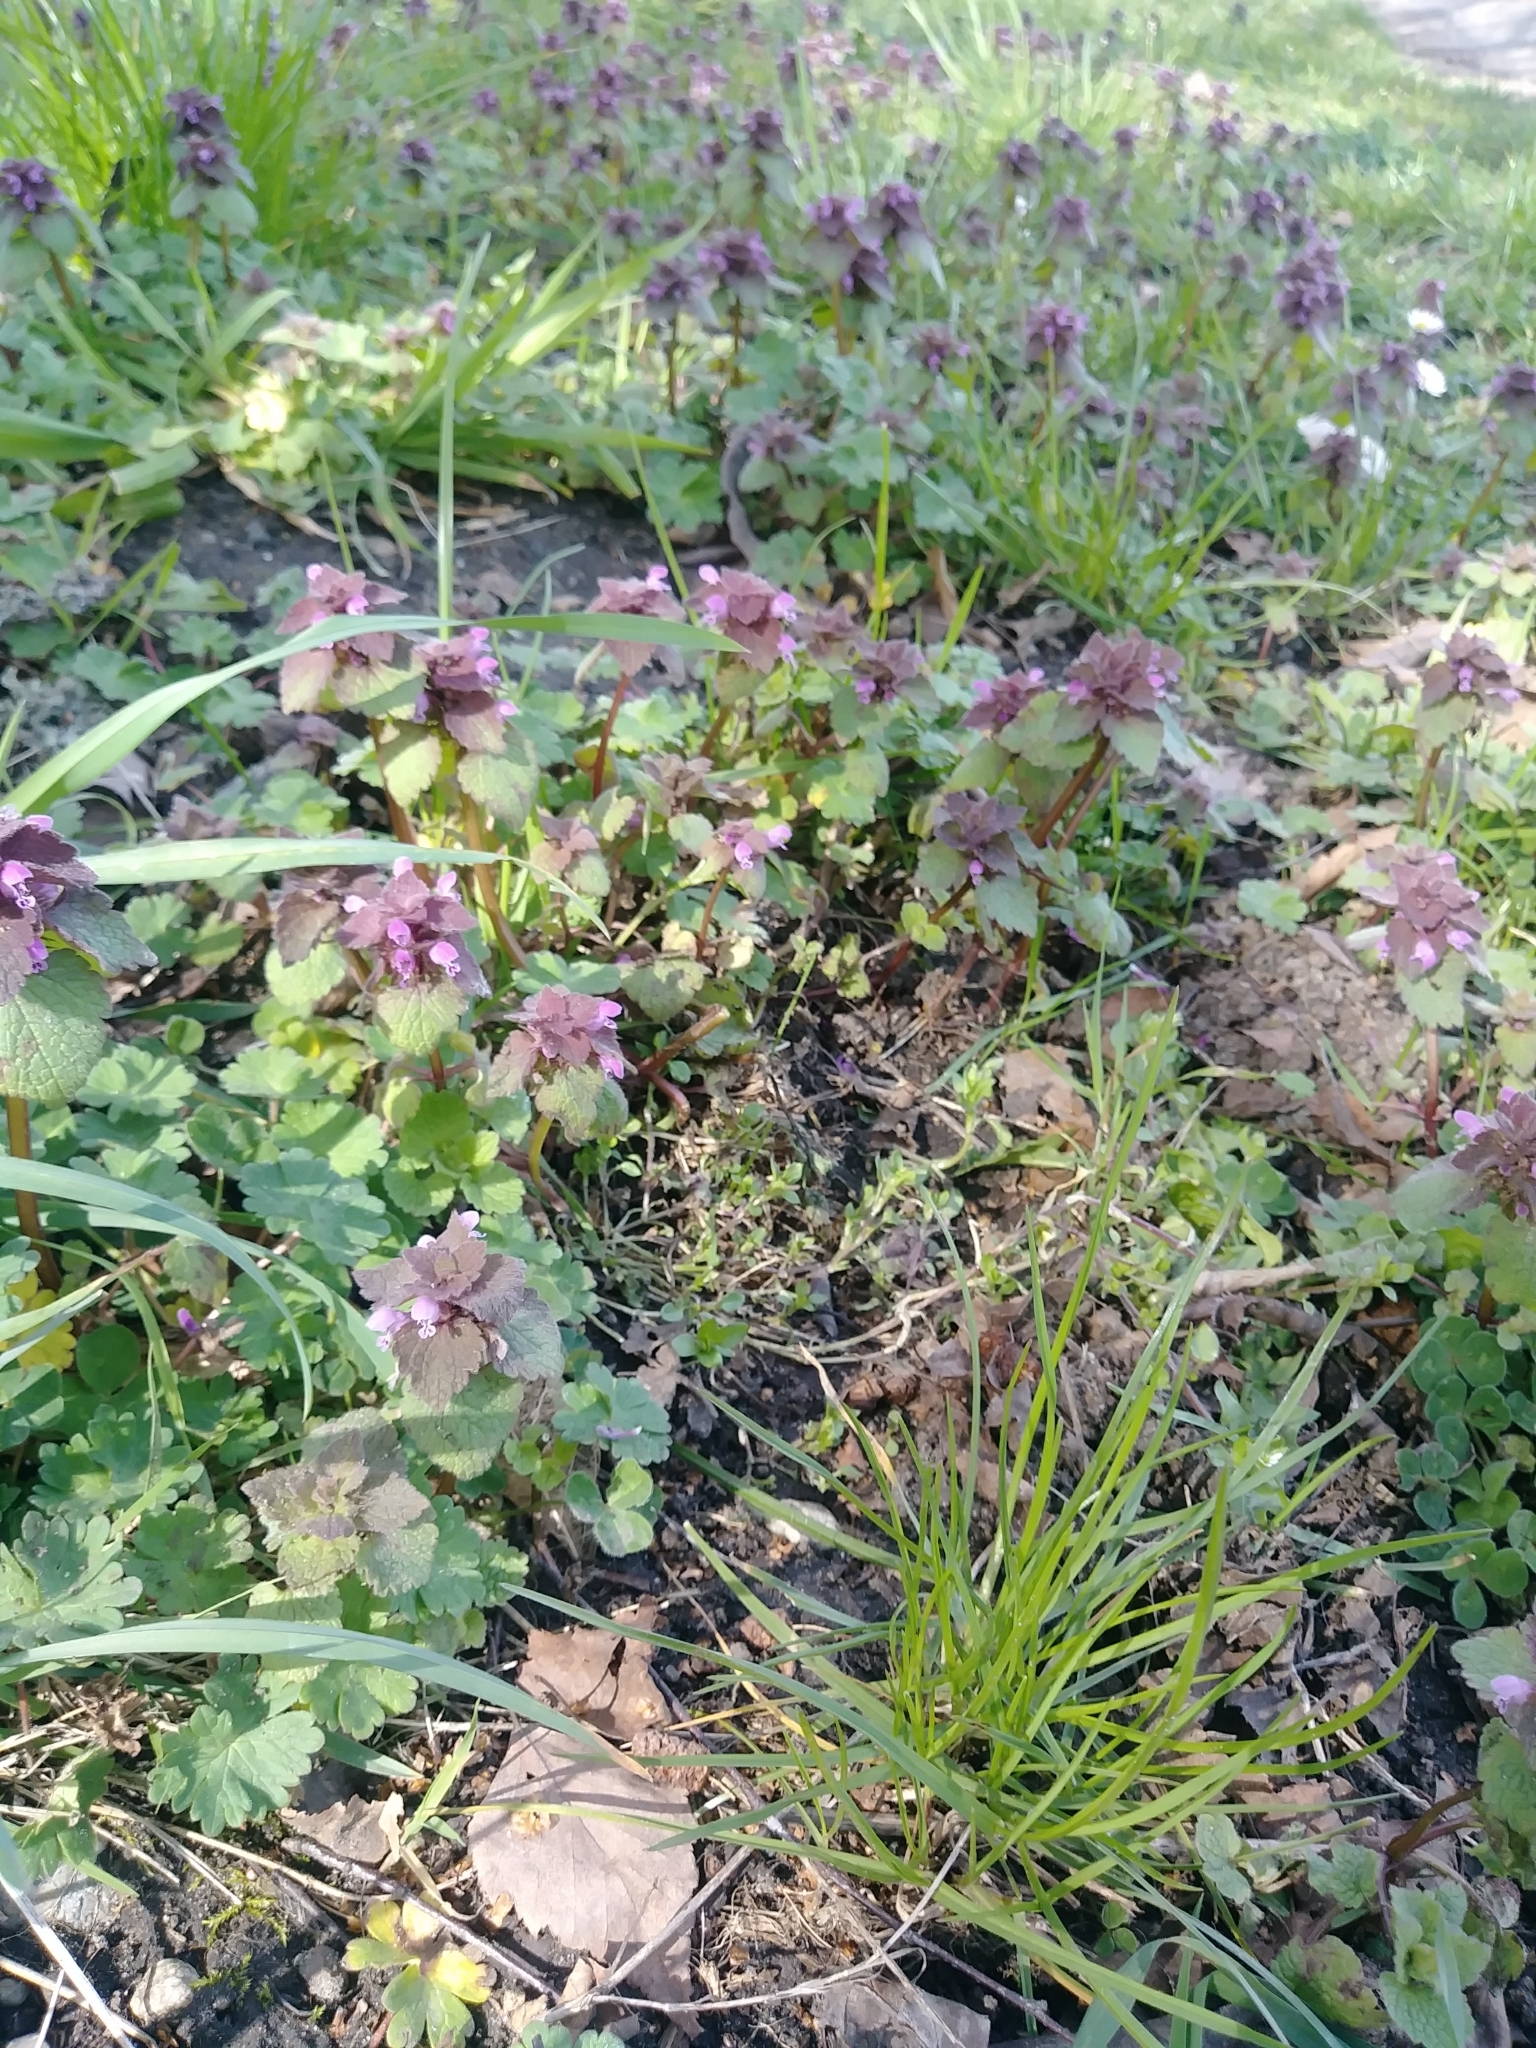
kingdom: Plantae
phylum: Tracheophyta
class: Magnoliopsida
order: Lamiales
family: Lamiaceae
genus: Lamium
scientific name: Lamium purpureum
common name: Red dead-nettle
